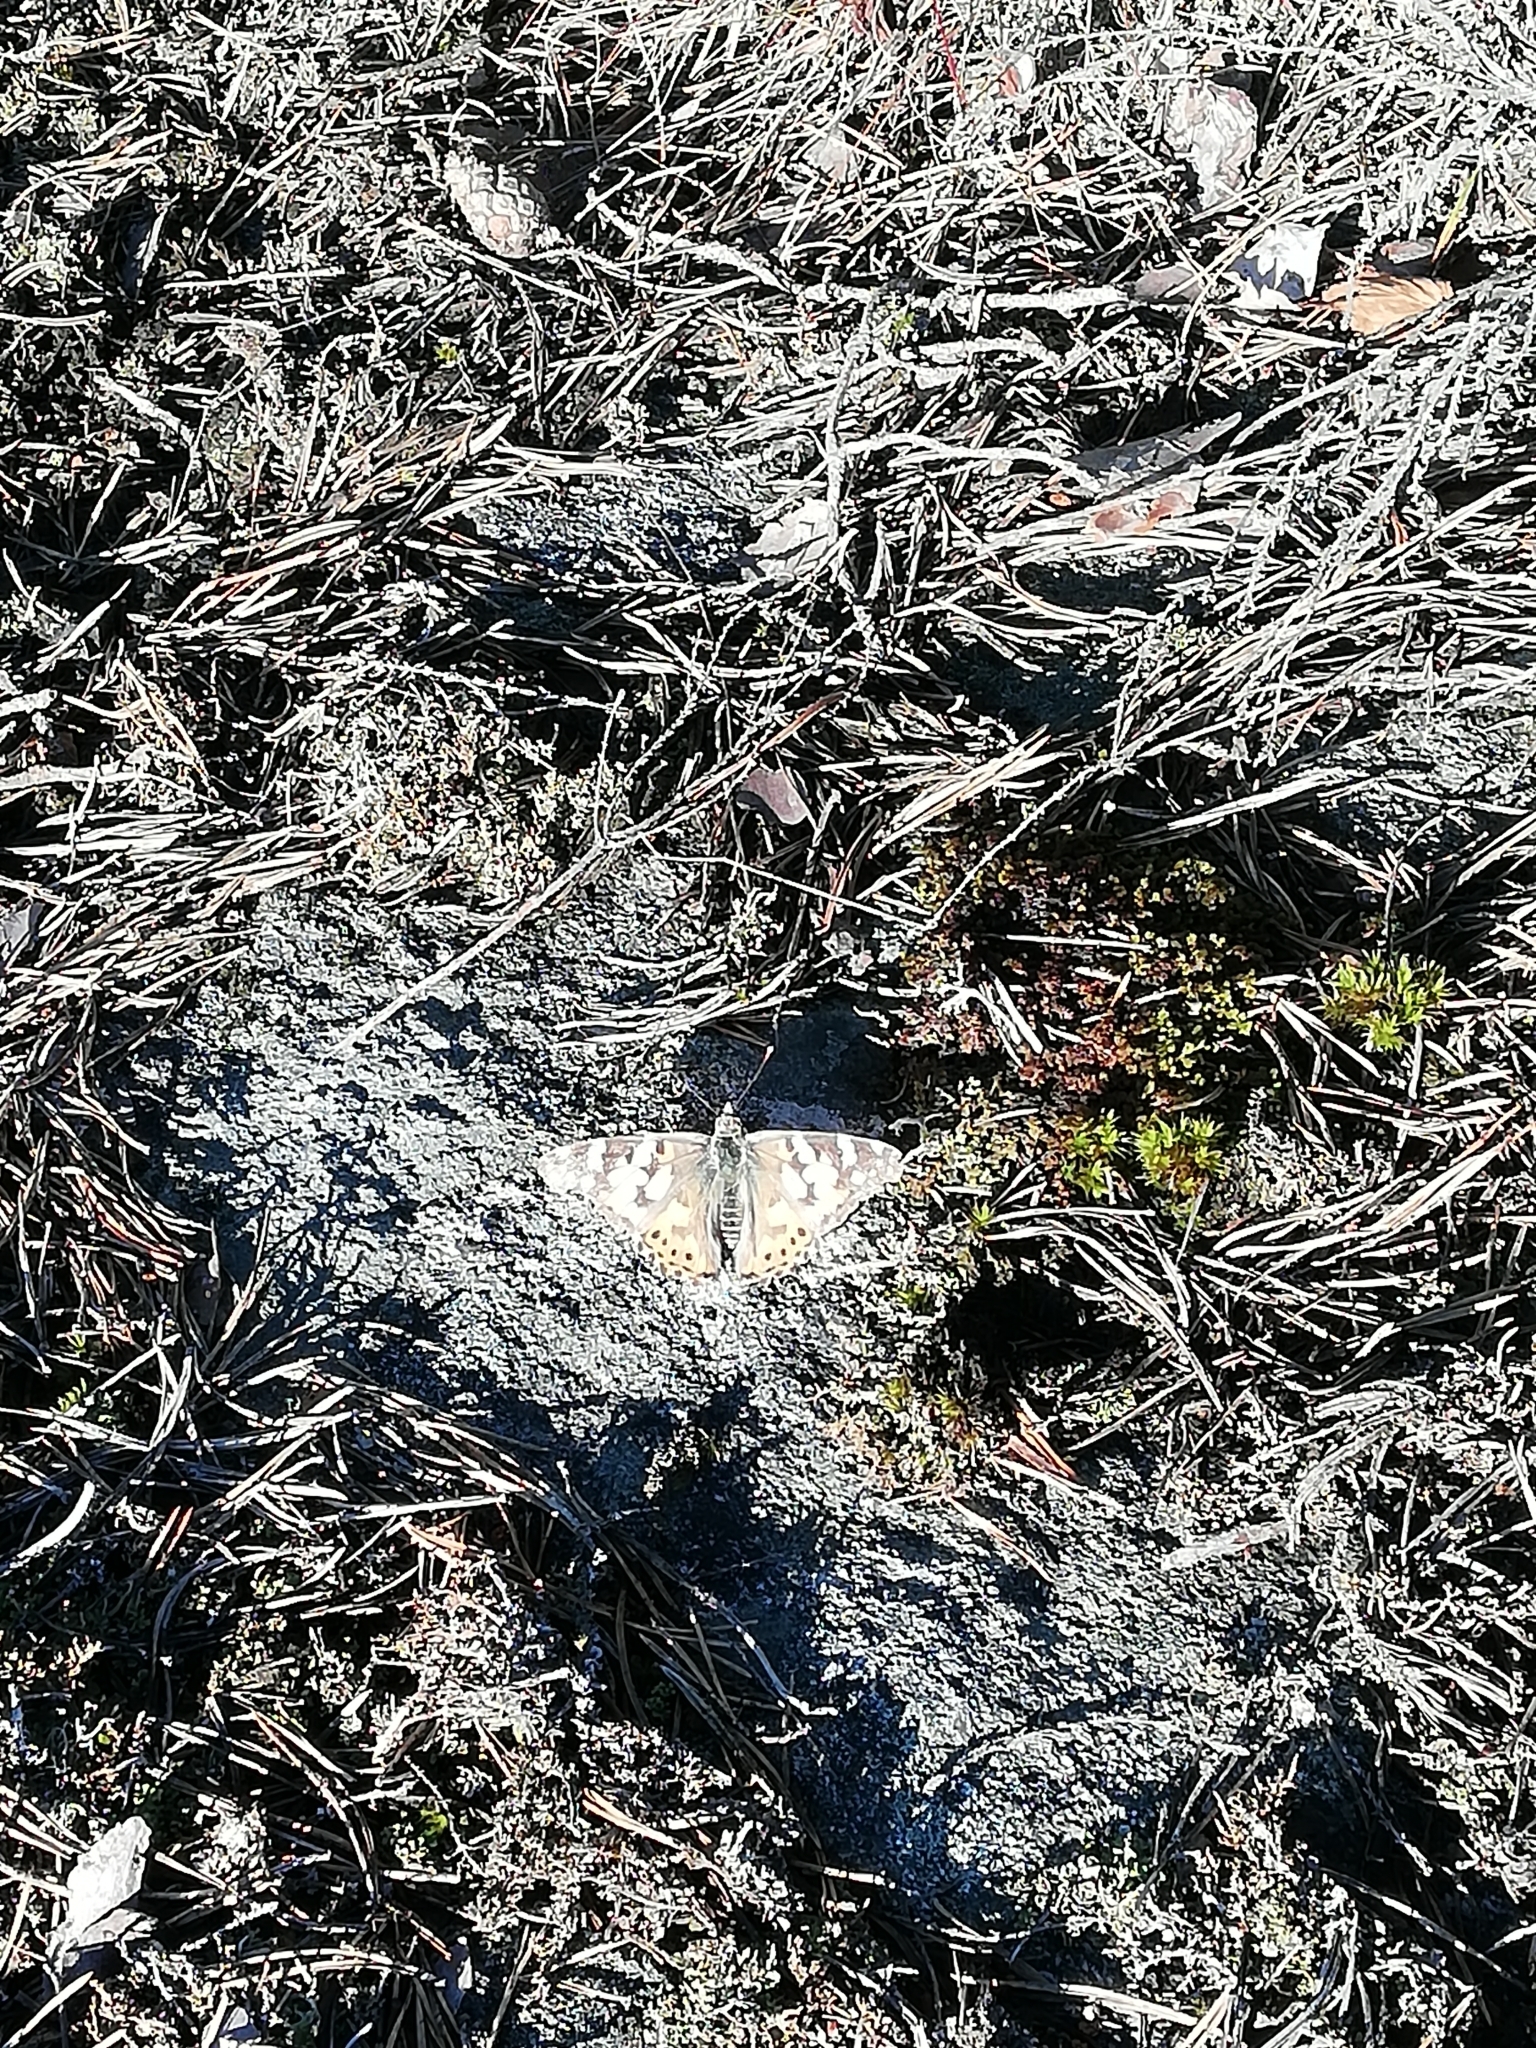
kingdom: Animalia
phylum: Arthropoda
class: Insecta
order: Lepidoptera
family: Nymphalidae
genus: Vanessa
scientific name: Vanessa cardui
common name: Painted lady
